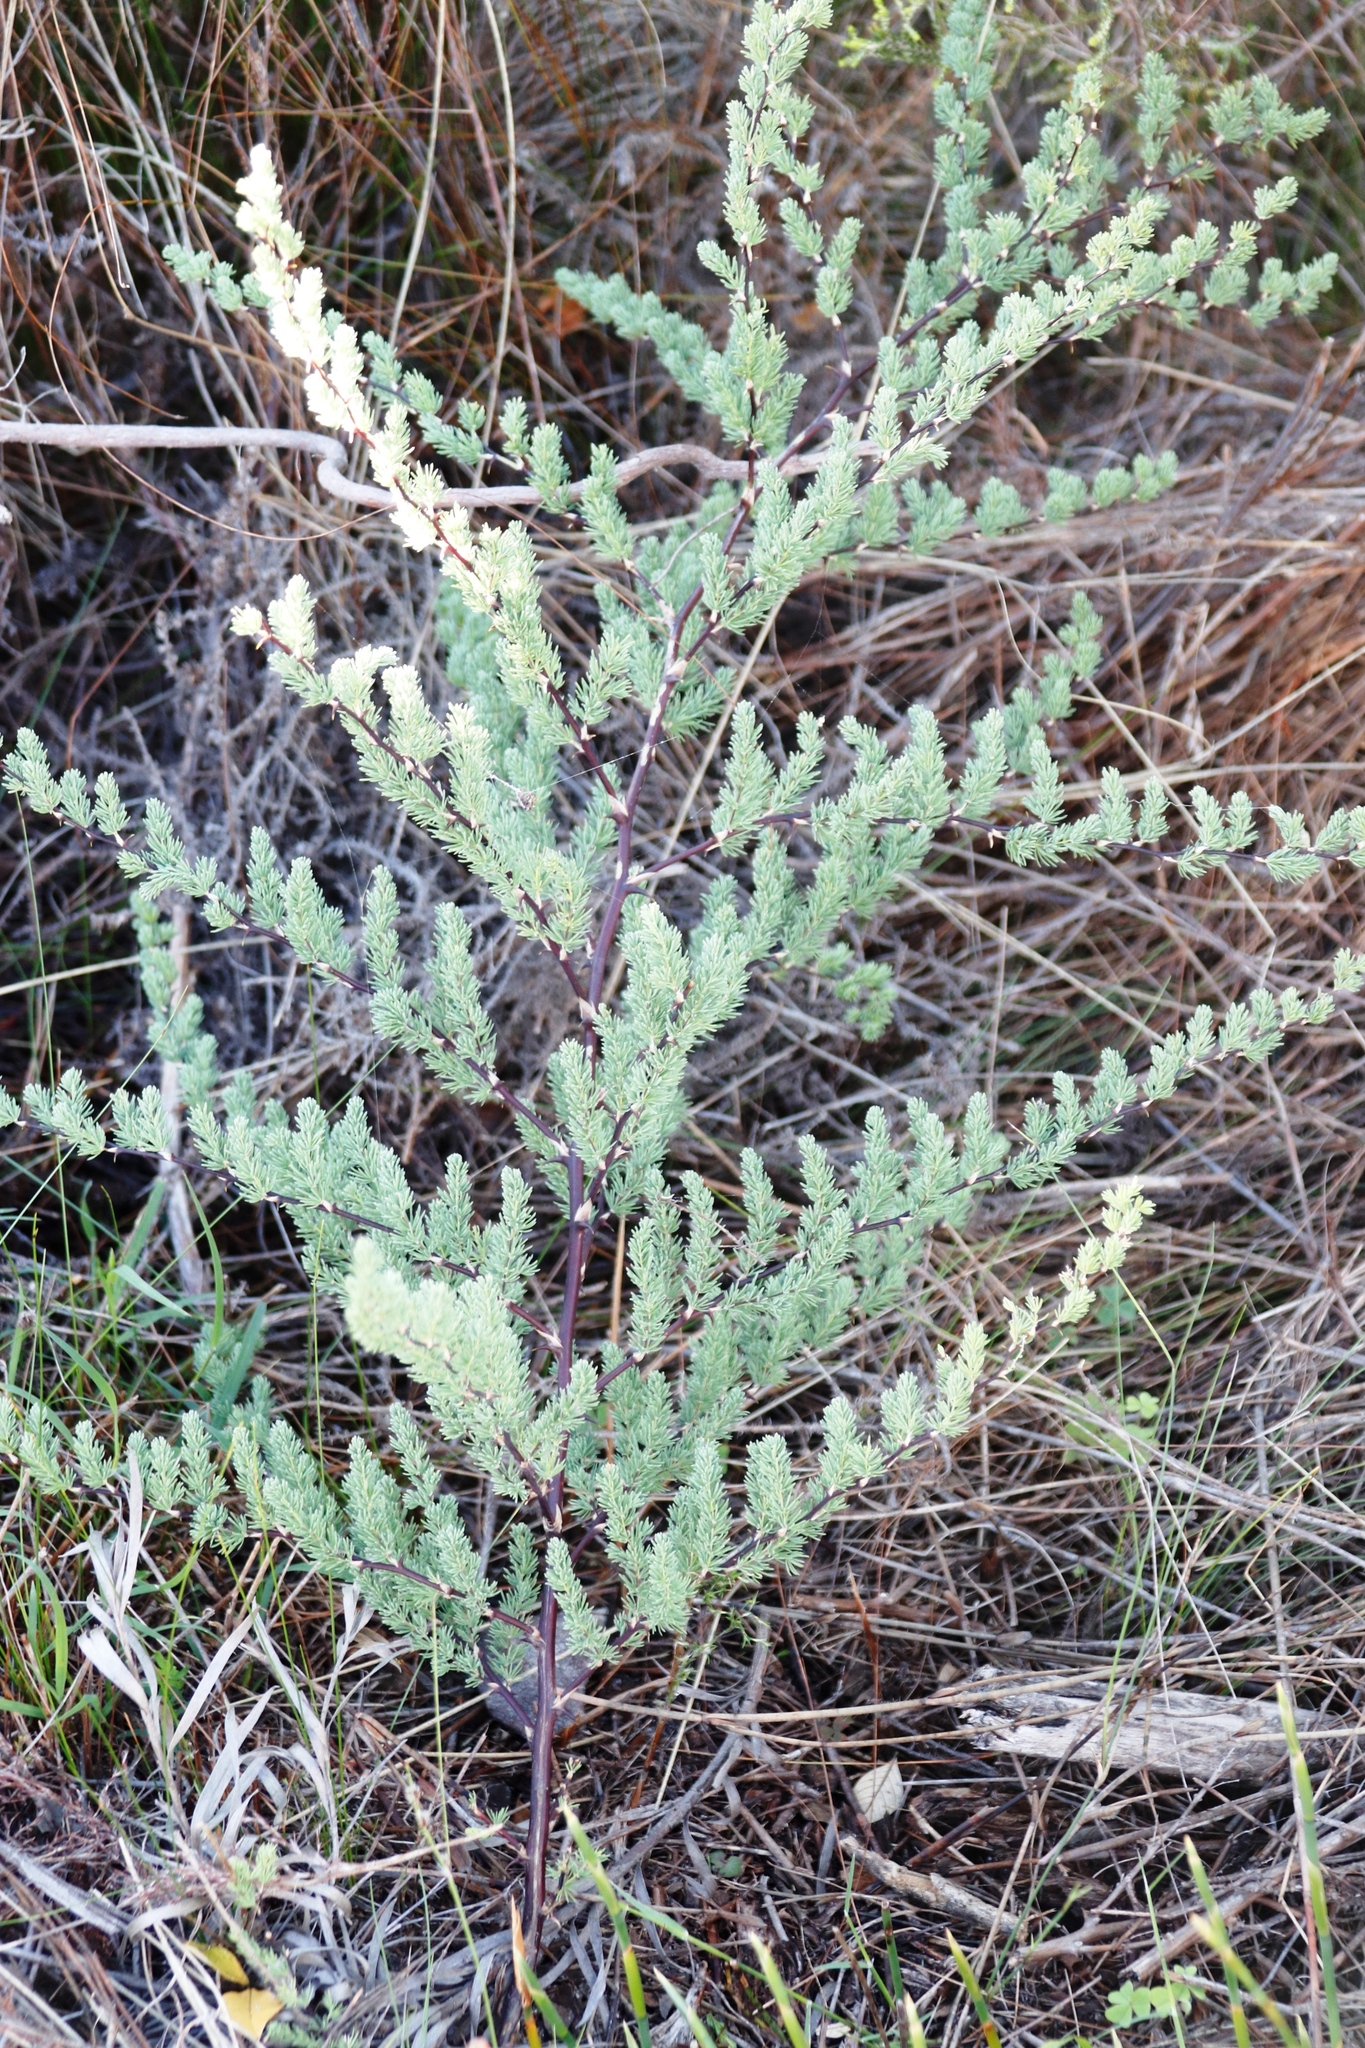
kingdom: Plantae
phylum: Tracheophyta
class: Liliopsida
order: Asparagales
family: Asparagaceae
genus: Asparagus
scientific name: Asparagus rubicundus
